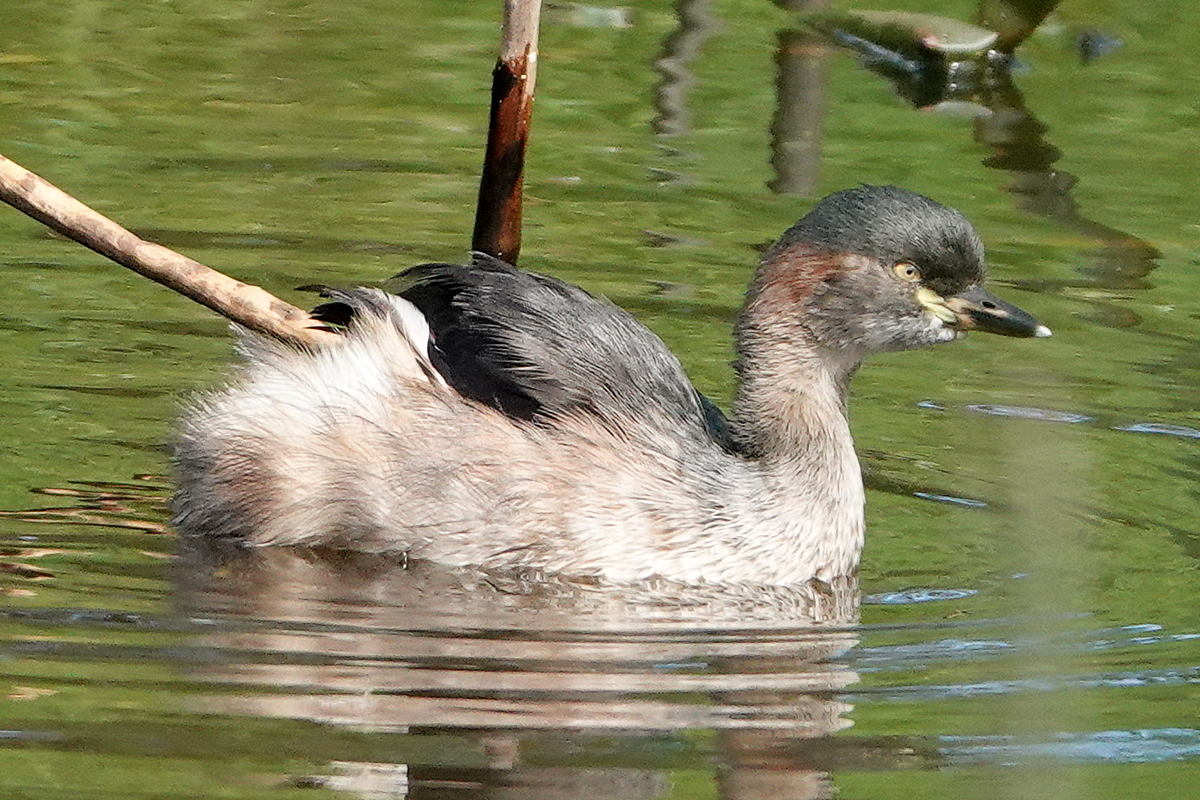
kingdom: Animalia
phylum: Chordata
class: Aves
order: Podicipediformes
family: Podicipedidae
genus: Tachybaptus
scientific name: Tachybaptus novaehollandiae
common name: Australasian grebe
